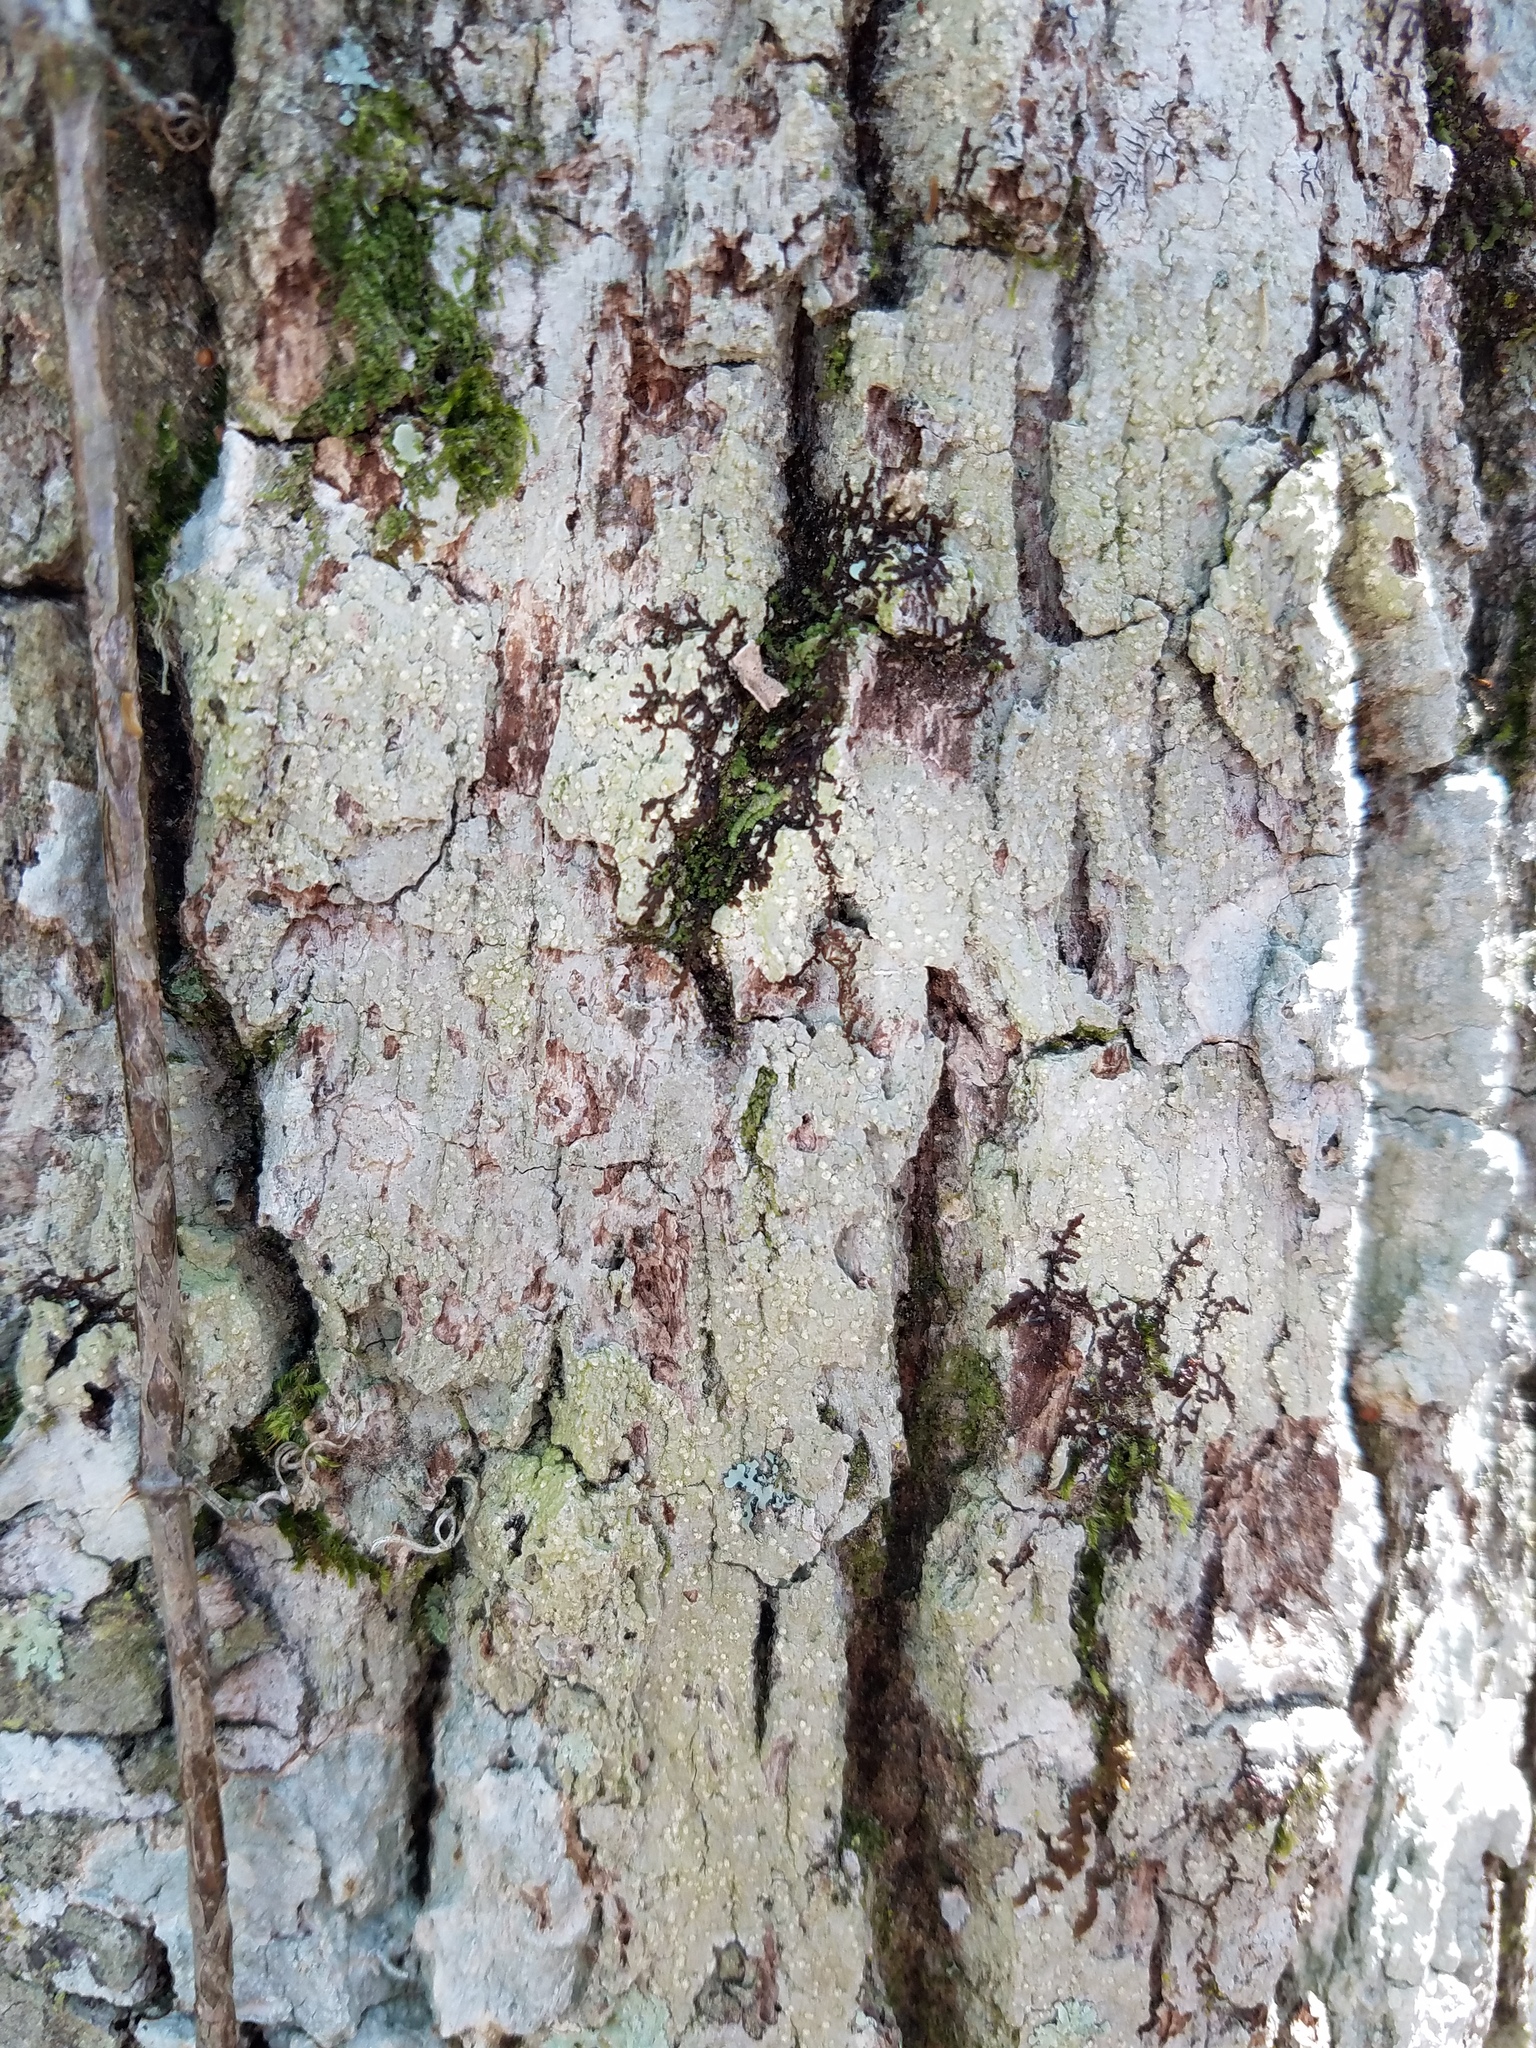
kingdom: Fungi
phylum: Ascomycota
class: Lecanoromycetes
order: Ostropales
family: Graphidaceae
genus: Nadvornikia
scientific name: Nadvornikia sorediata
